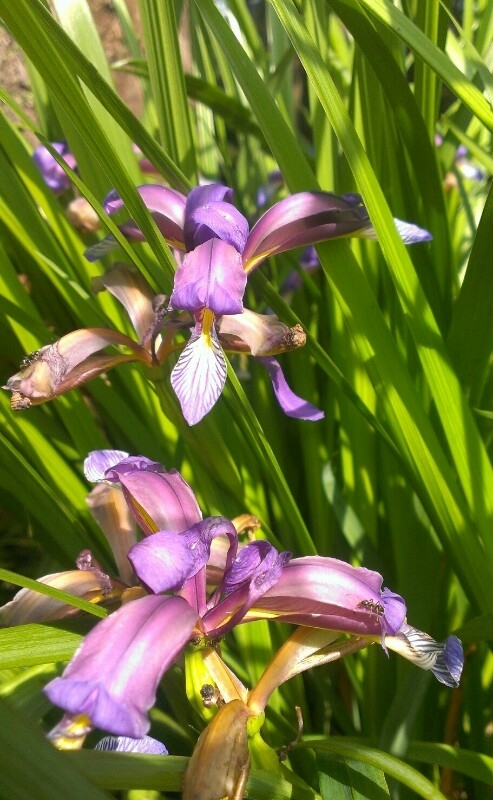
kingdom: Plantae
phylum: Tracheophyta
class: Liliopsida
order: Asparagales
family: Iridaceae
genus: Iris
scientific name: Iris graminea
